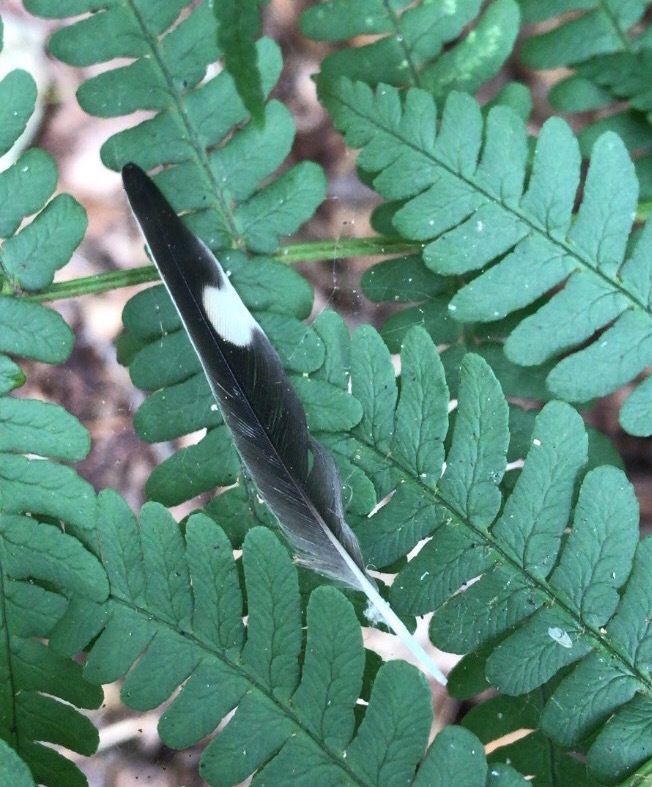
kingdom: Animalia
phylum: Chordata
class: Aves
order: Passeriformes
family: Hirundinidae
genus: Hirundo
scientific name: Hirundo rustica
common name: Barn swallow
